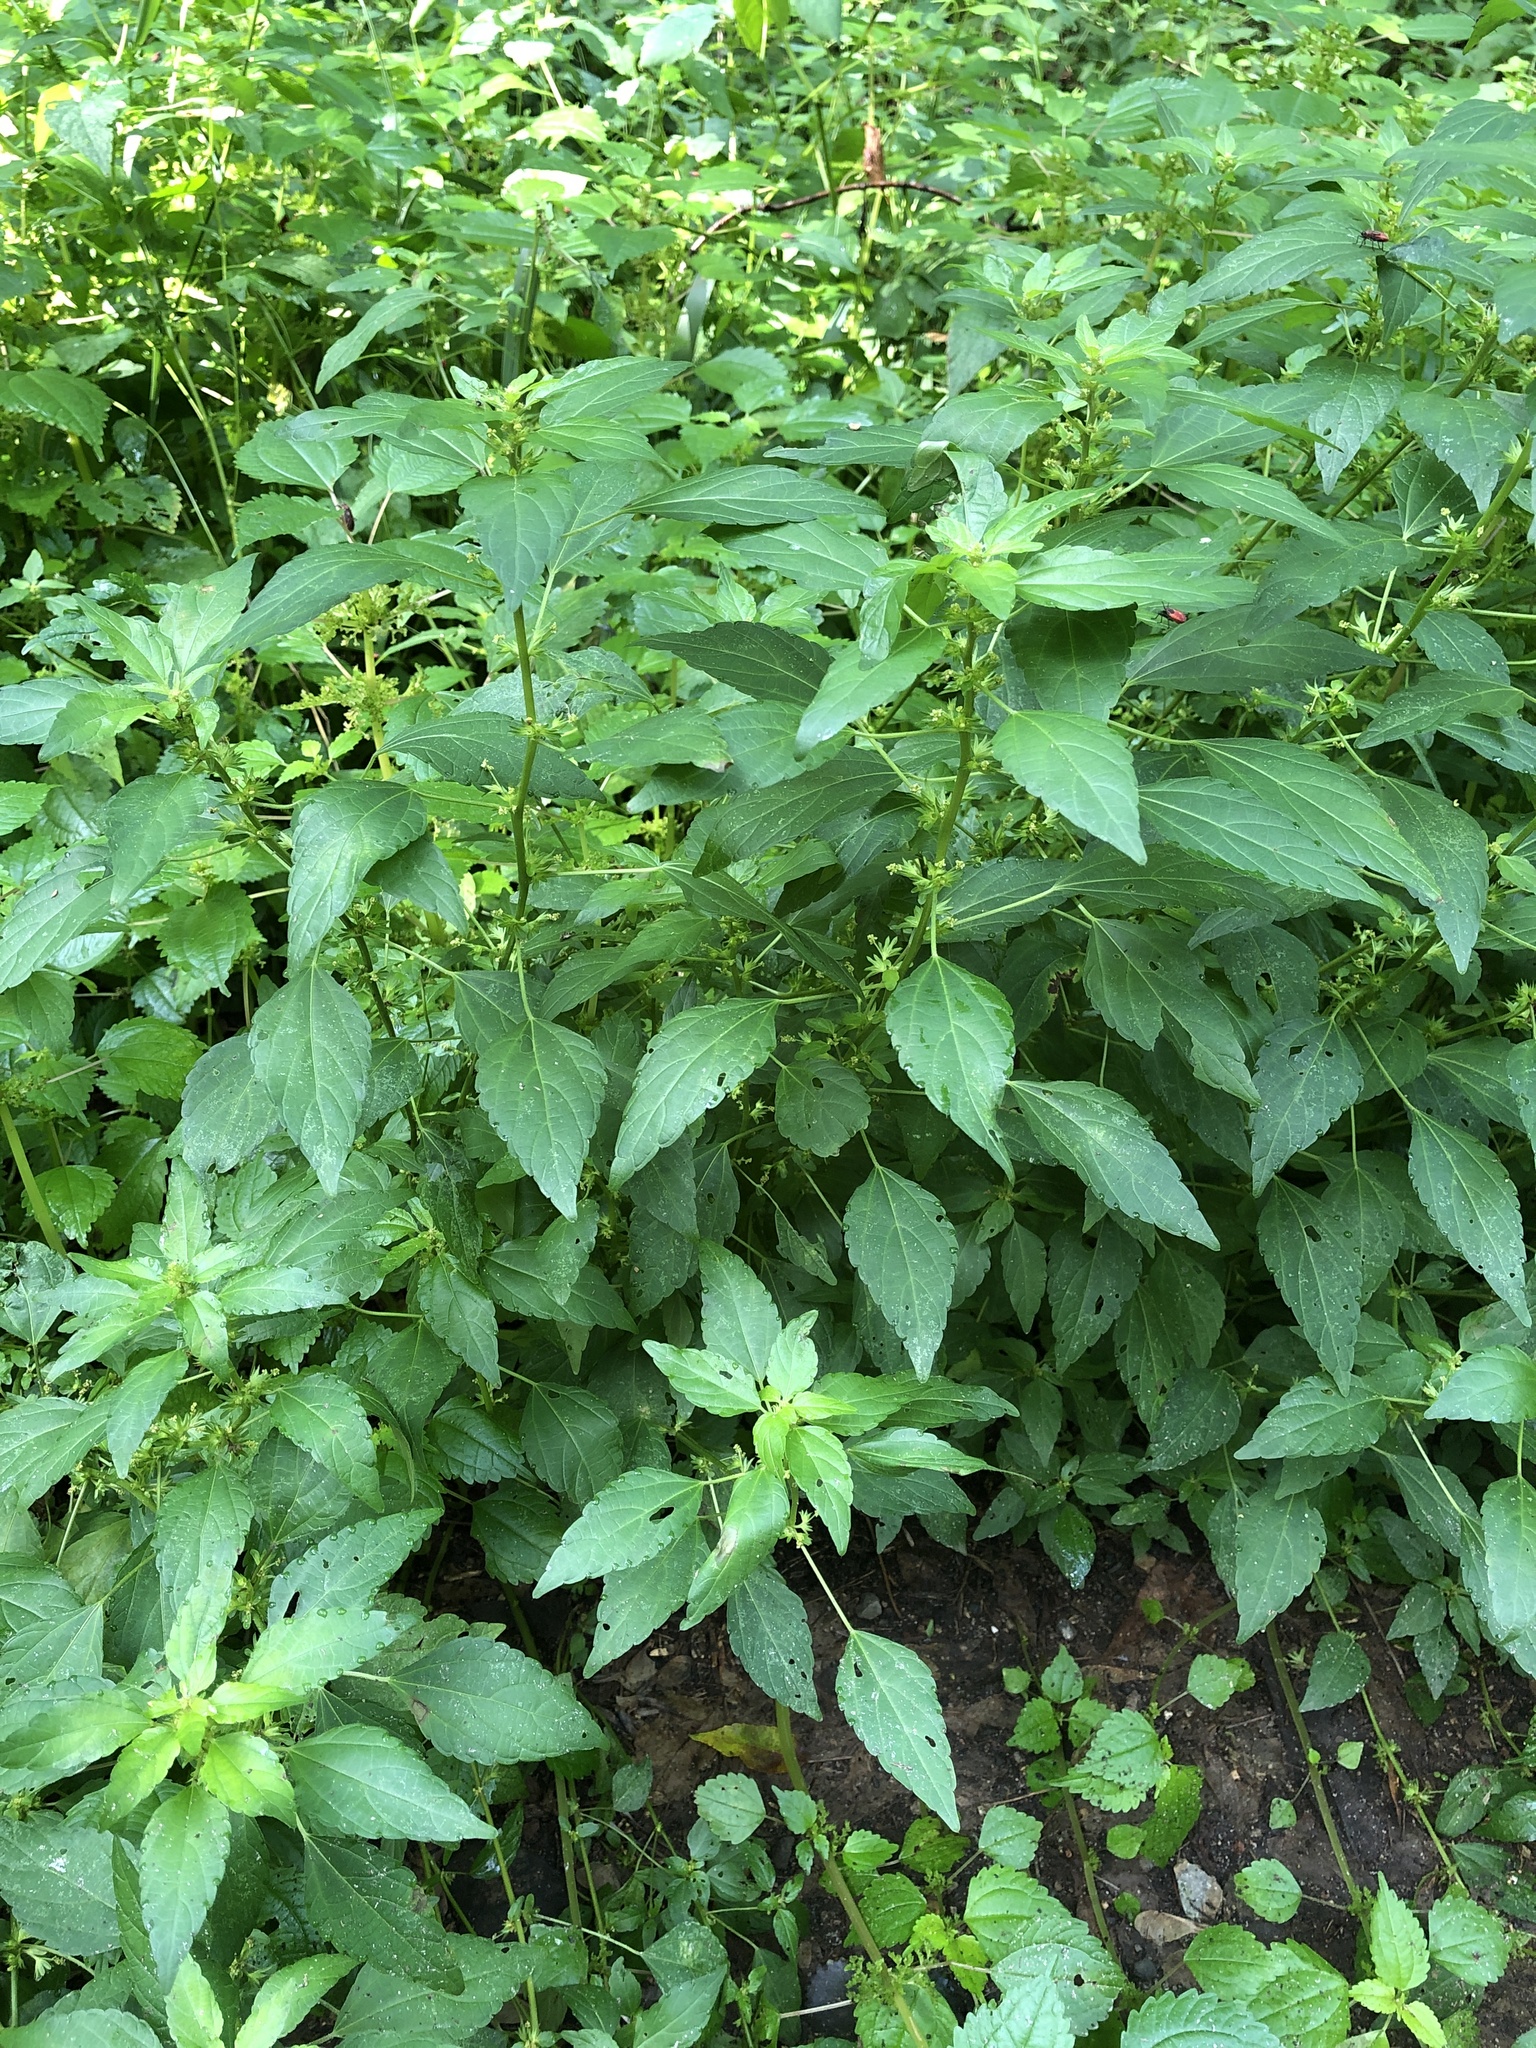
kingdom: Plantae
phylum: Tracheophyta
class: Magnoliopsida
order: Malpighiales
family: Euphorbiaceae
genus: Acalypha
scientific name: Acalypha rhomboidea
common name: Rhombic copperleaf
